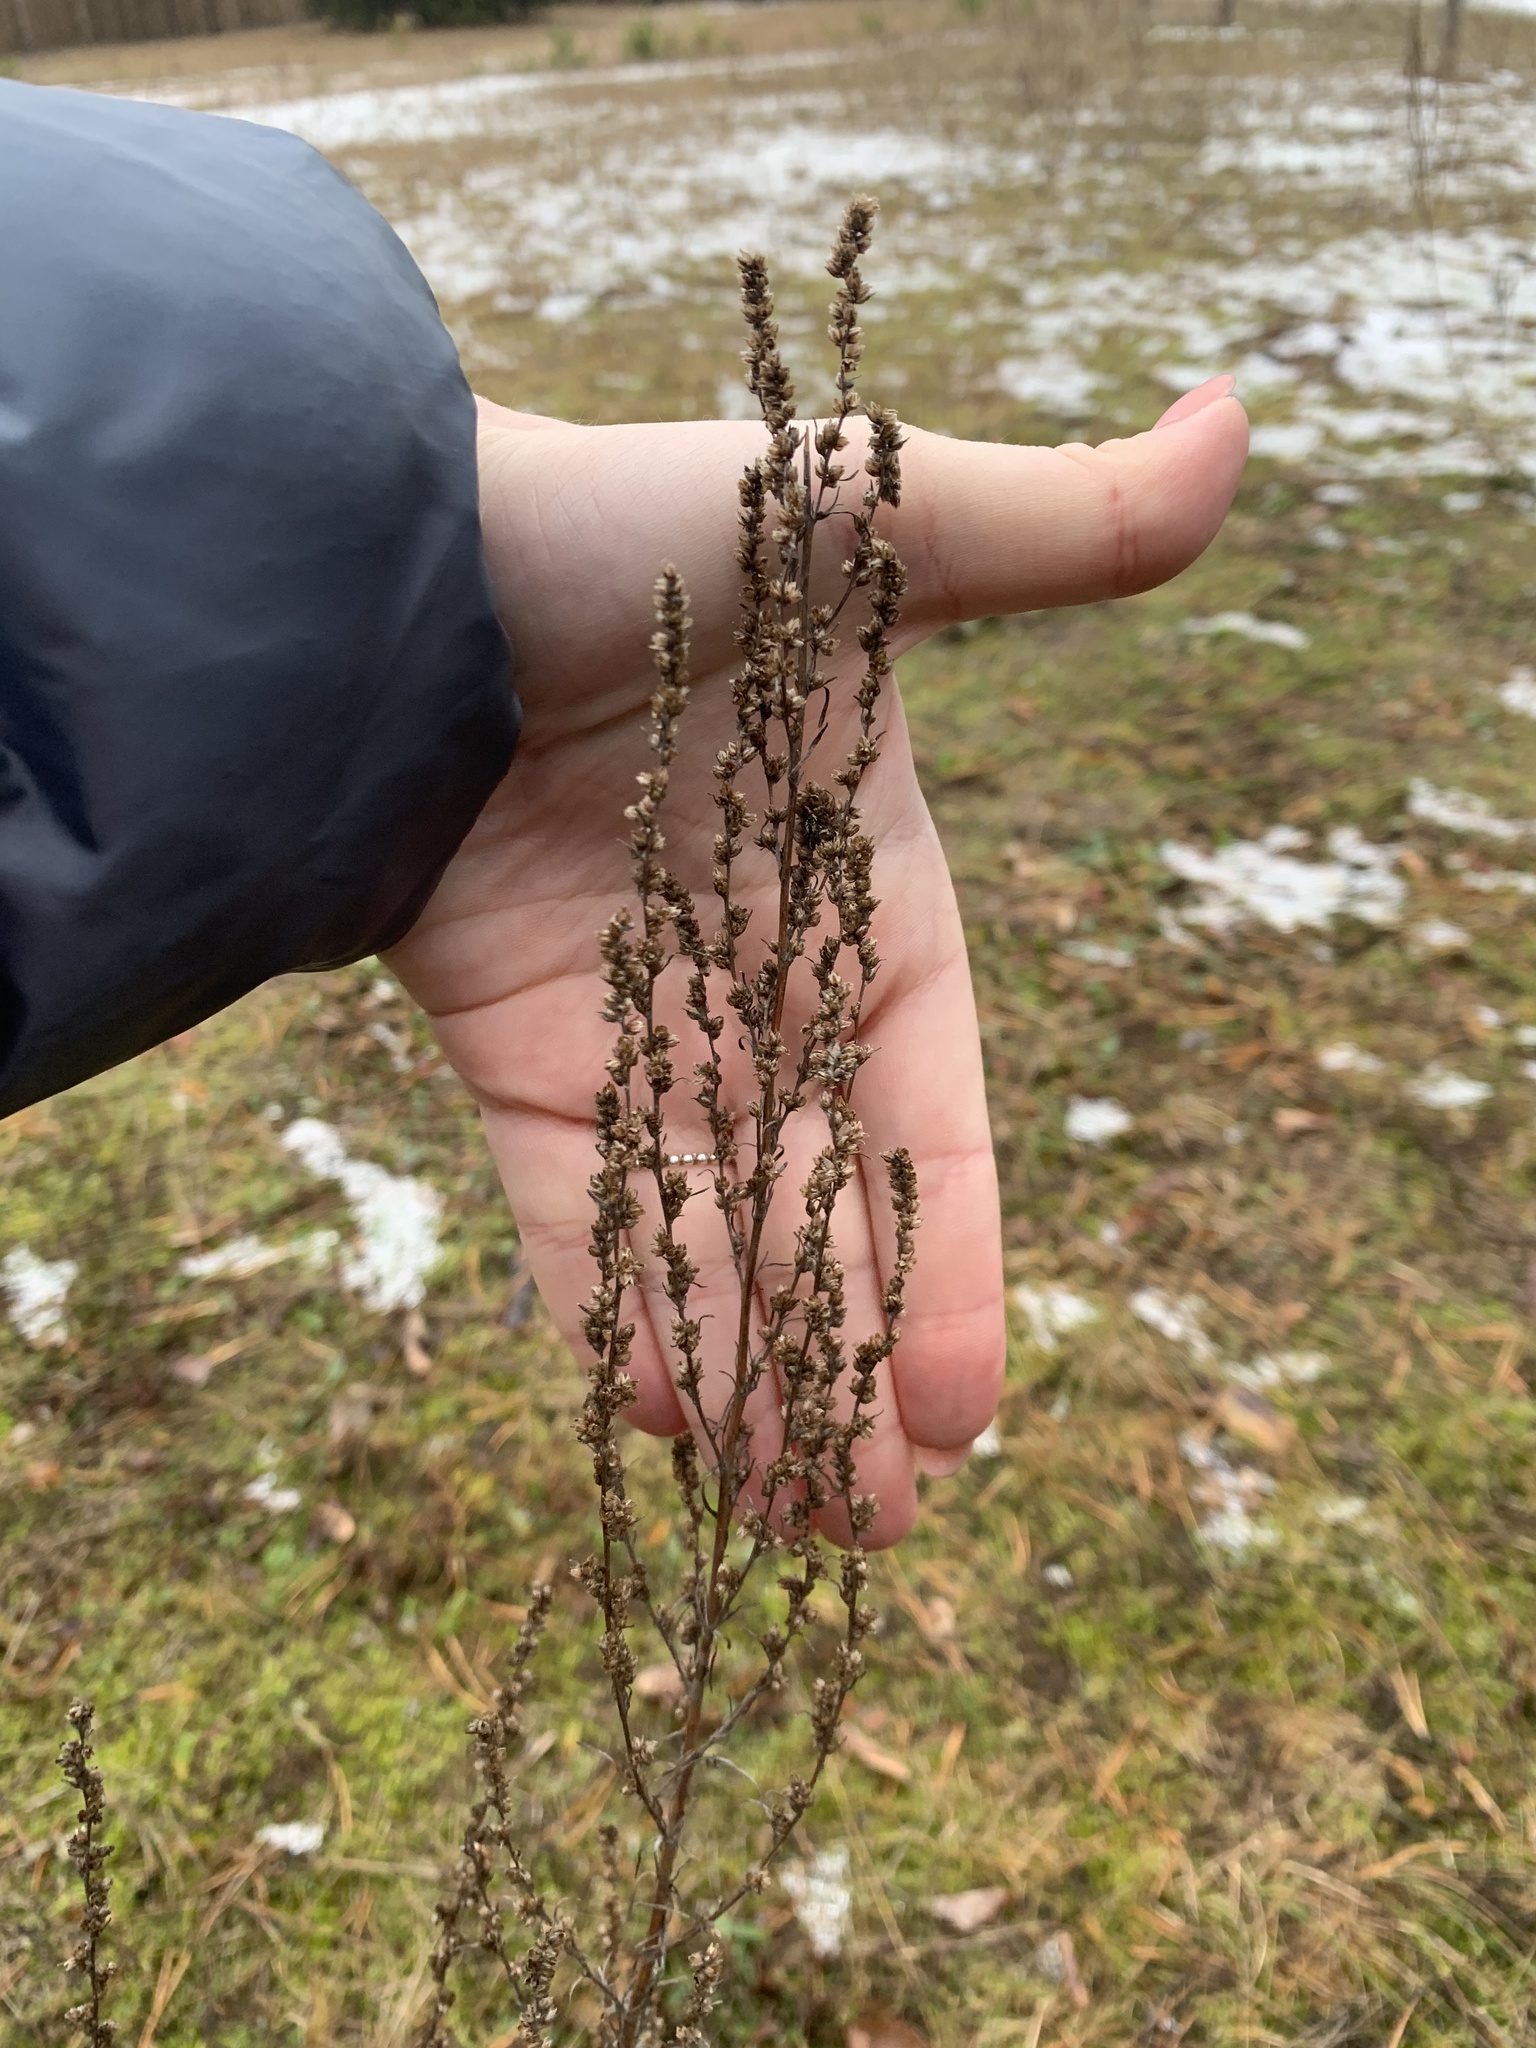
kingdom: Plantae
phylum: Tracheophyta
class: Magnoliopsida
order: Asterales
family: Asteraceae
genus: Artemisia
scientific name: Artemisia campestris
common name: Field wormwood
